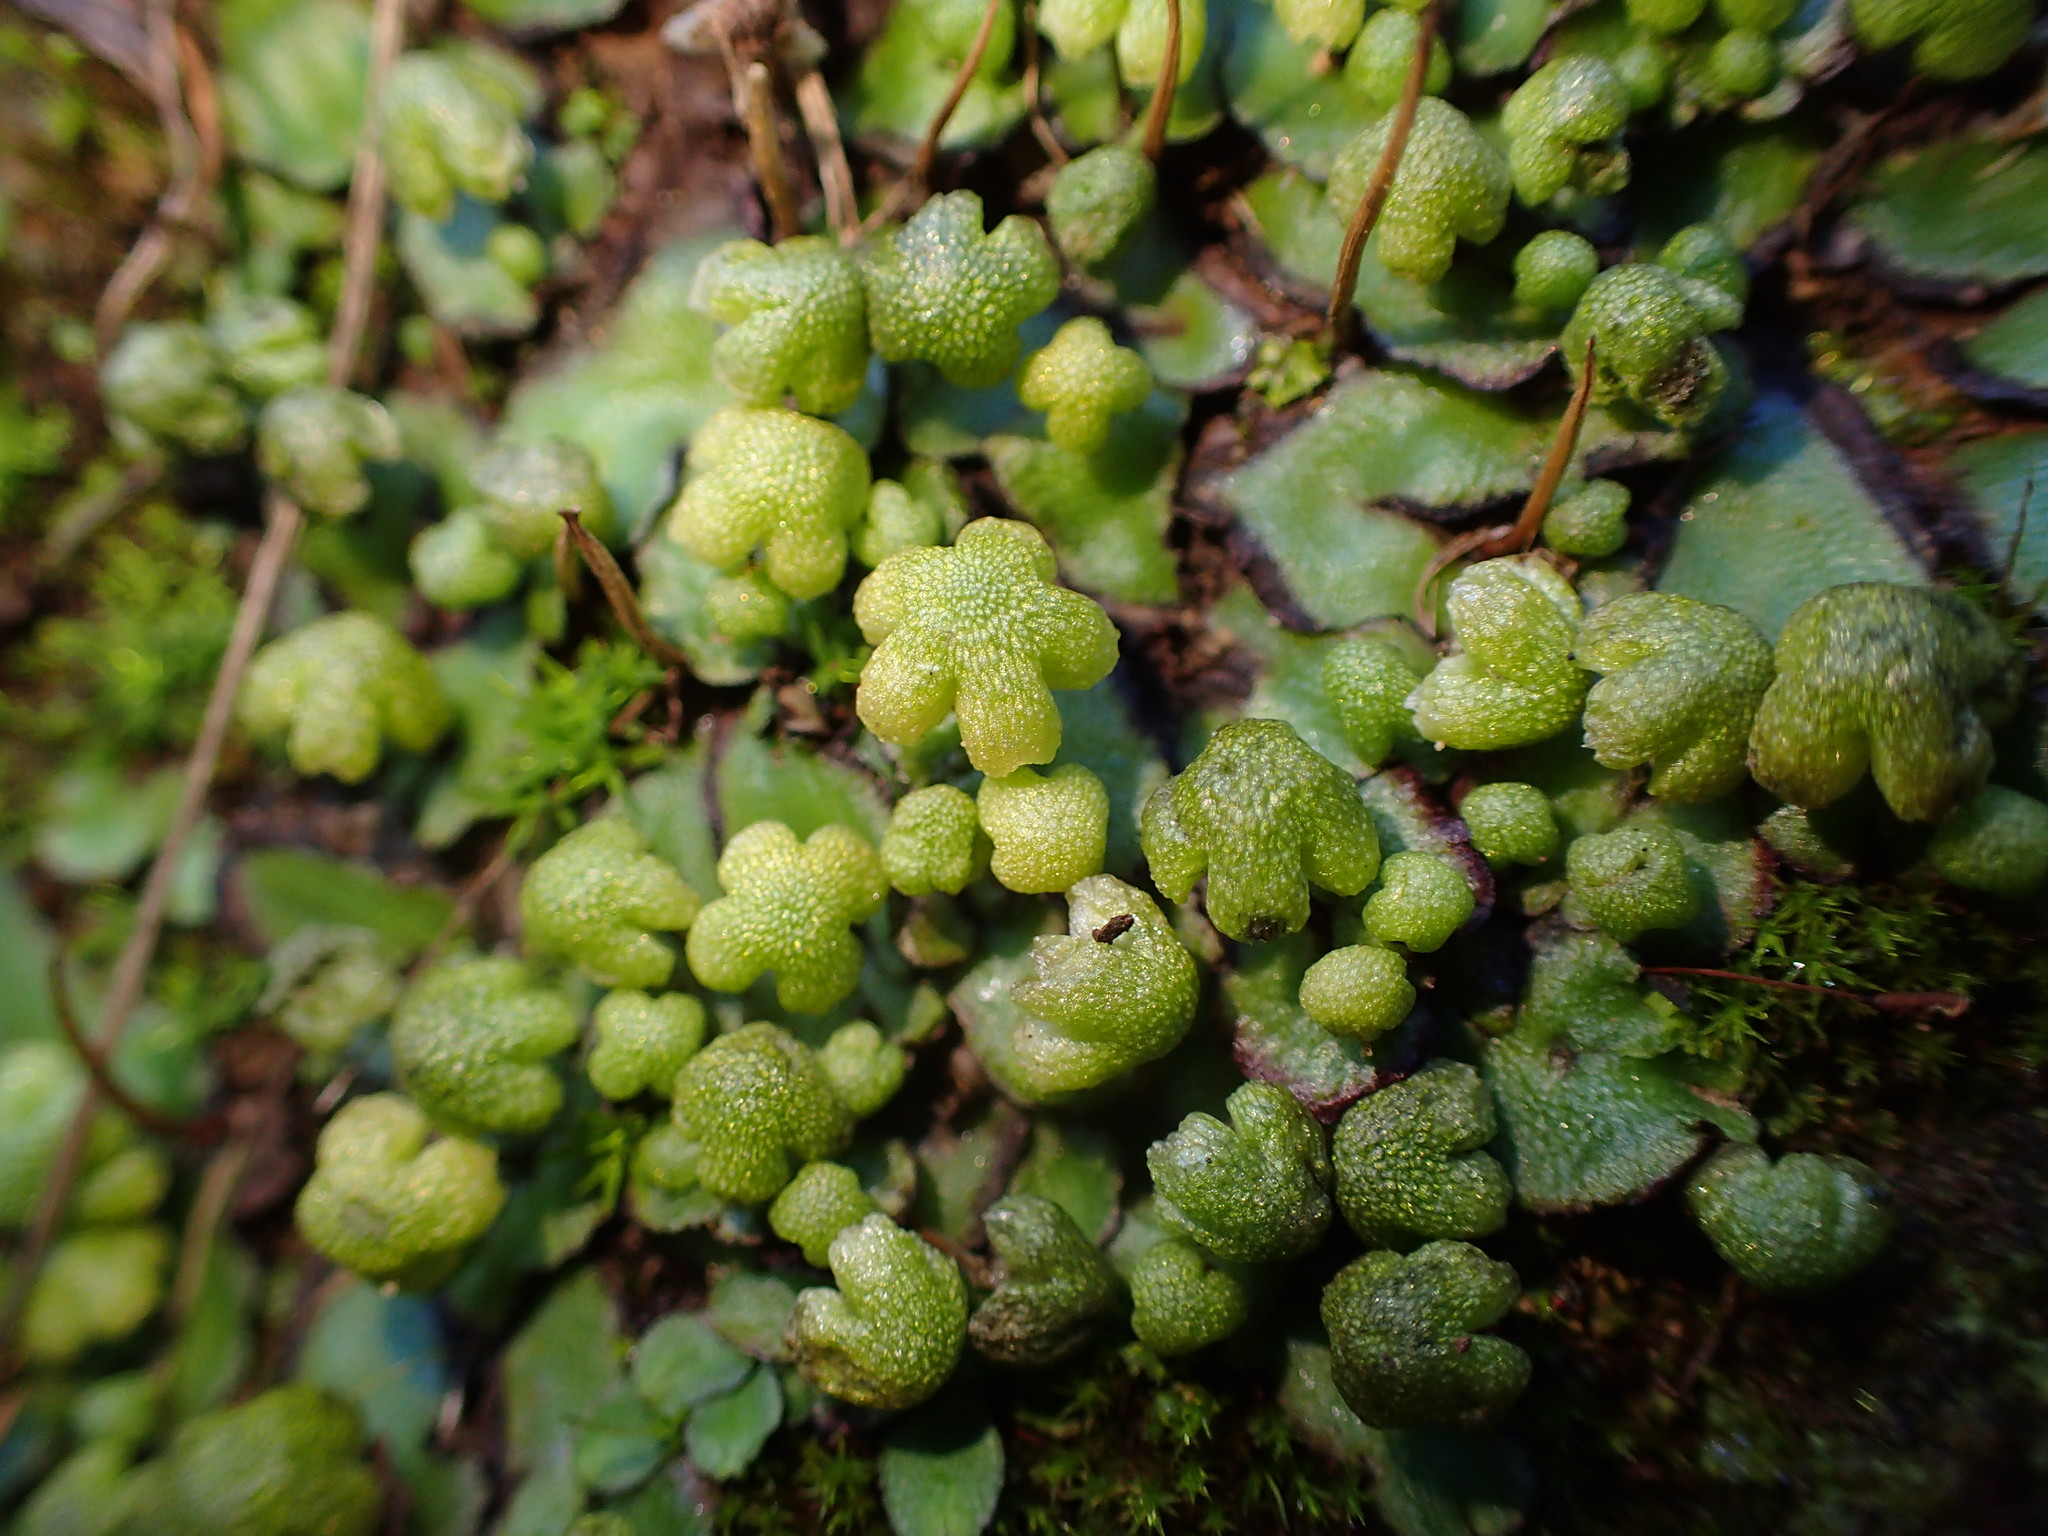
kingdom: Plantae
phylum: Marchantiophyta
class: Marchantiopsida
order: Marchantiales
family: Aytoniaceae
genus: Asterella
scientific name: Asterella californica
